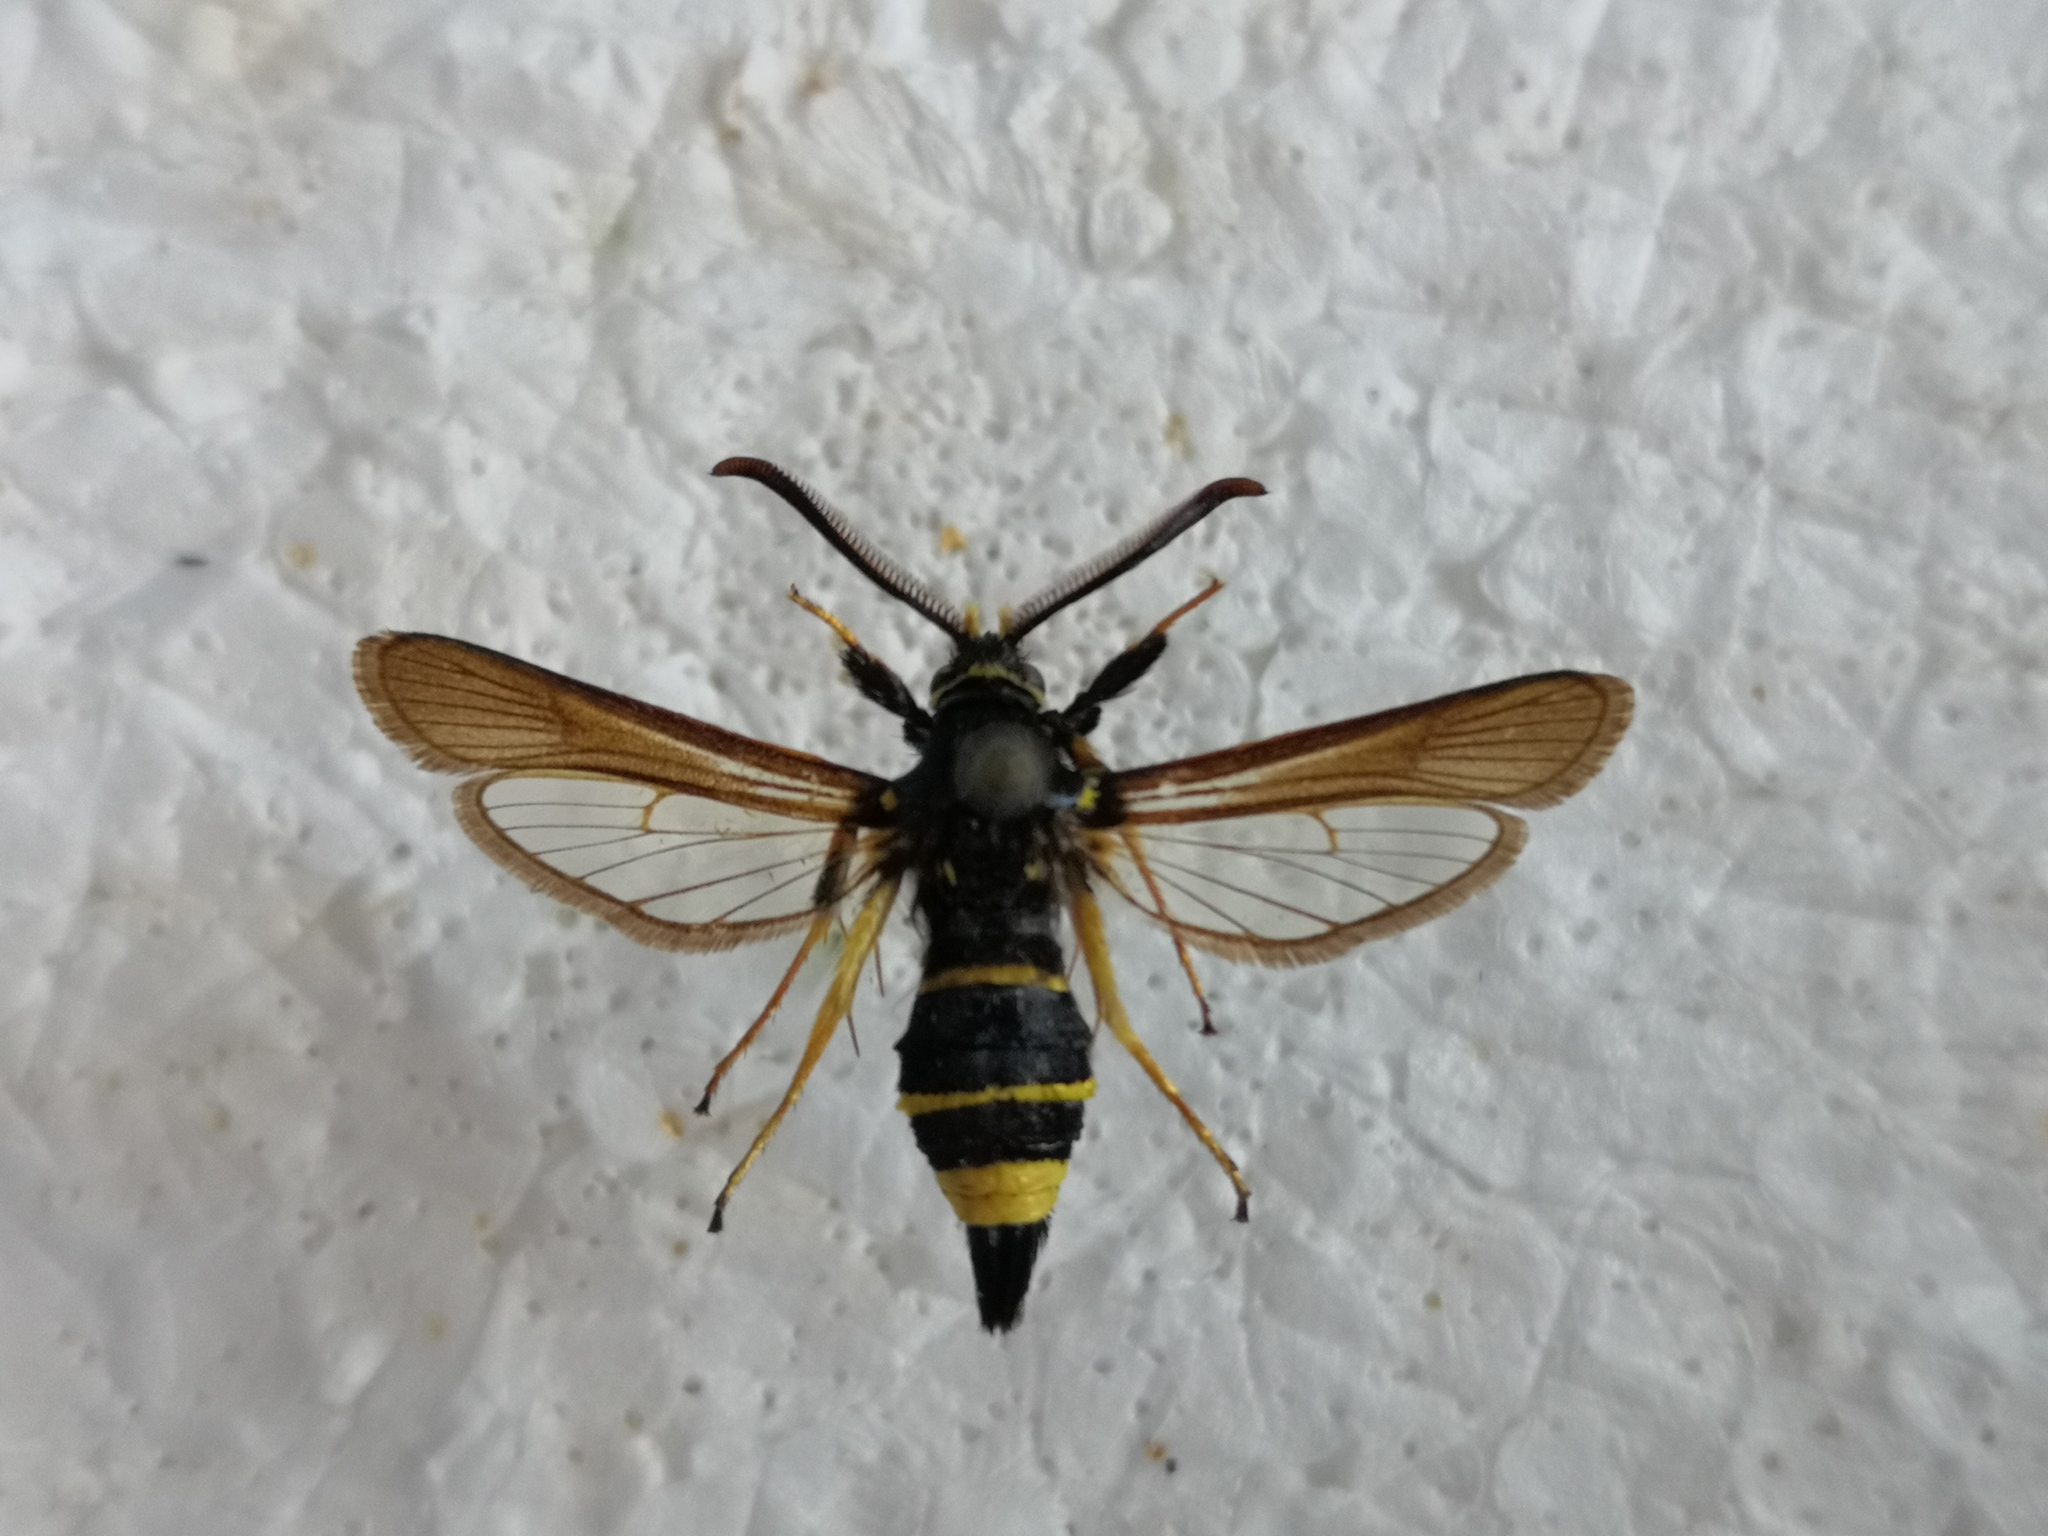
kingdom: Animalia
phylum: Arthropoda
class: Insecta
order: Lepidoptera
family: Sesiidae
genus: Paranthrene
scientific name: Paranthrene tabaniformis
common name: Dusky clearwing
